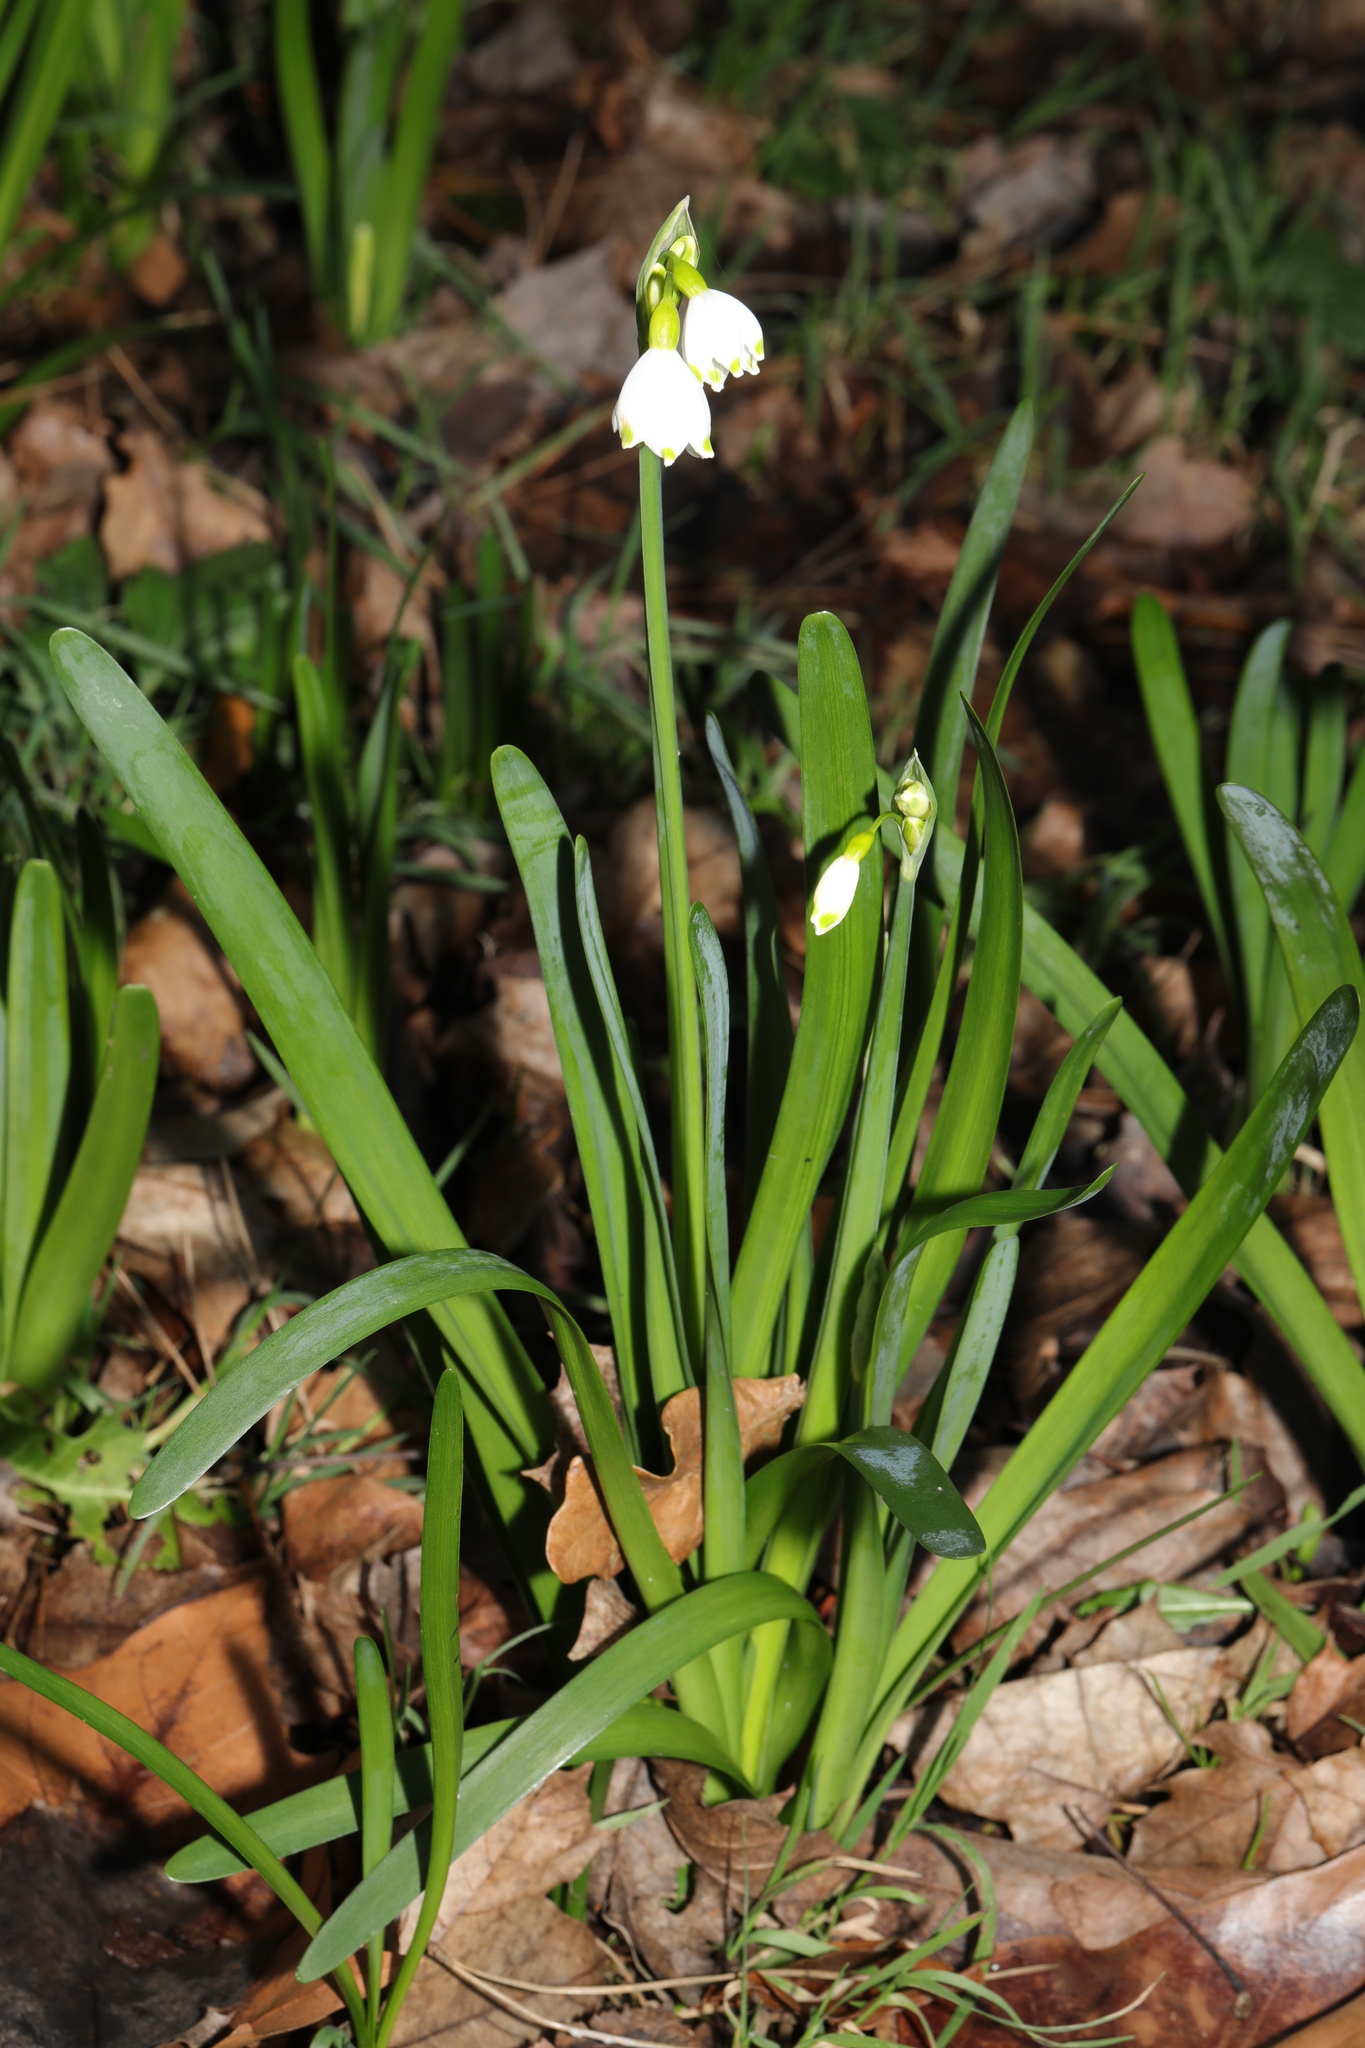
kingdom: Plantae
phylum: Tracheophyta
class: Liliopsida
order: Asparagales
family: Amaryllidaceae
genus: Leucojum
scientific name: Leucojum aestivum
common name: Summer snowflake
